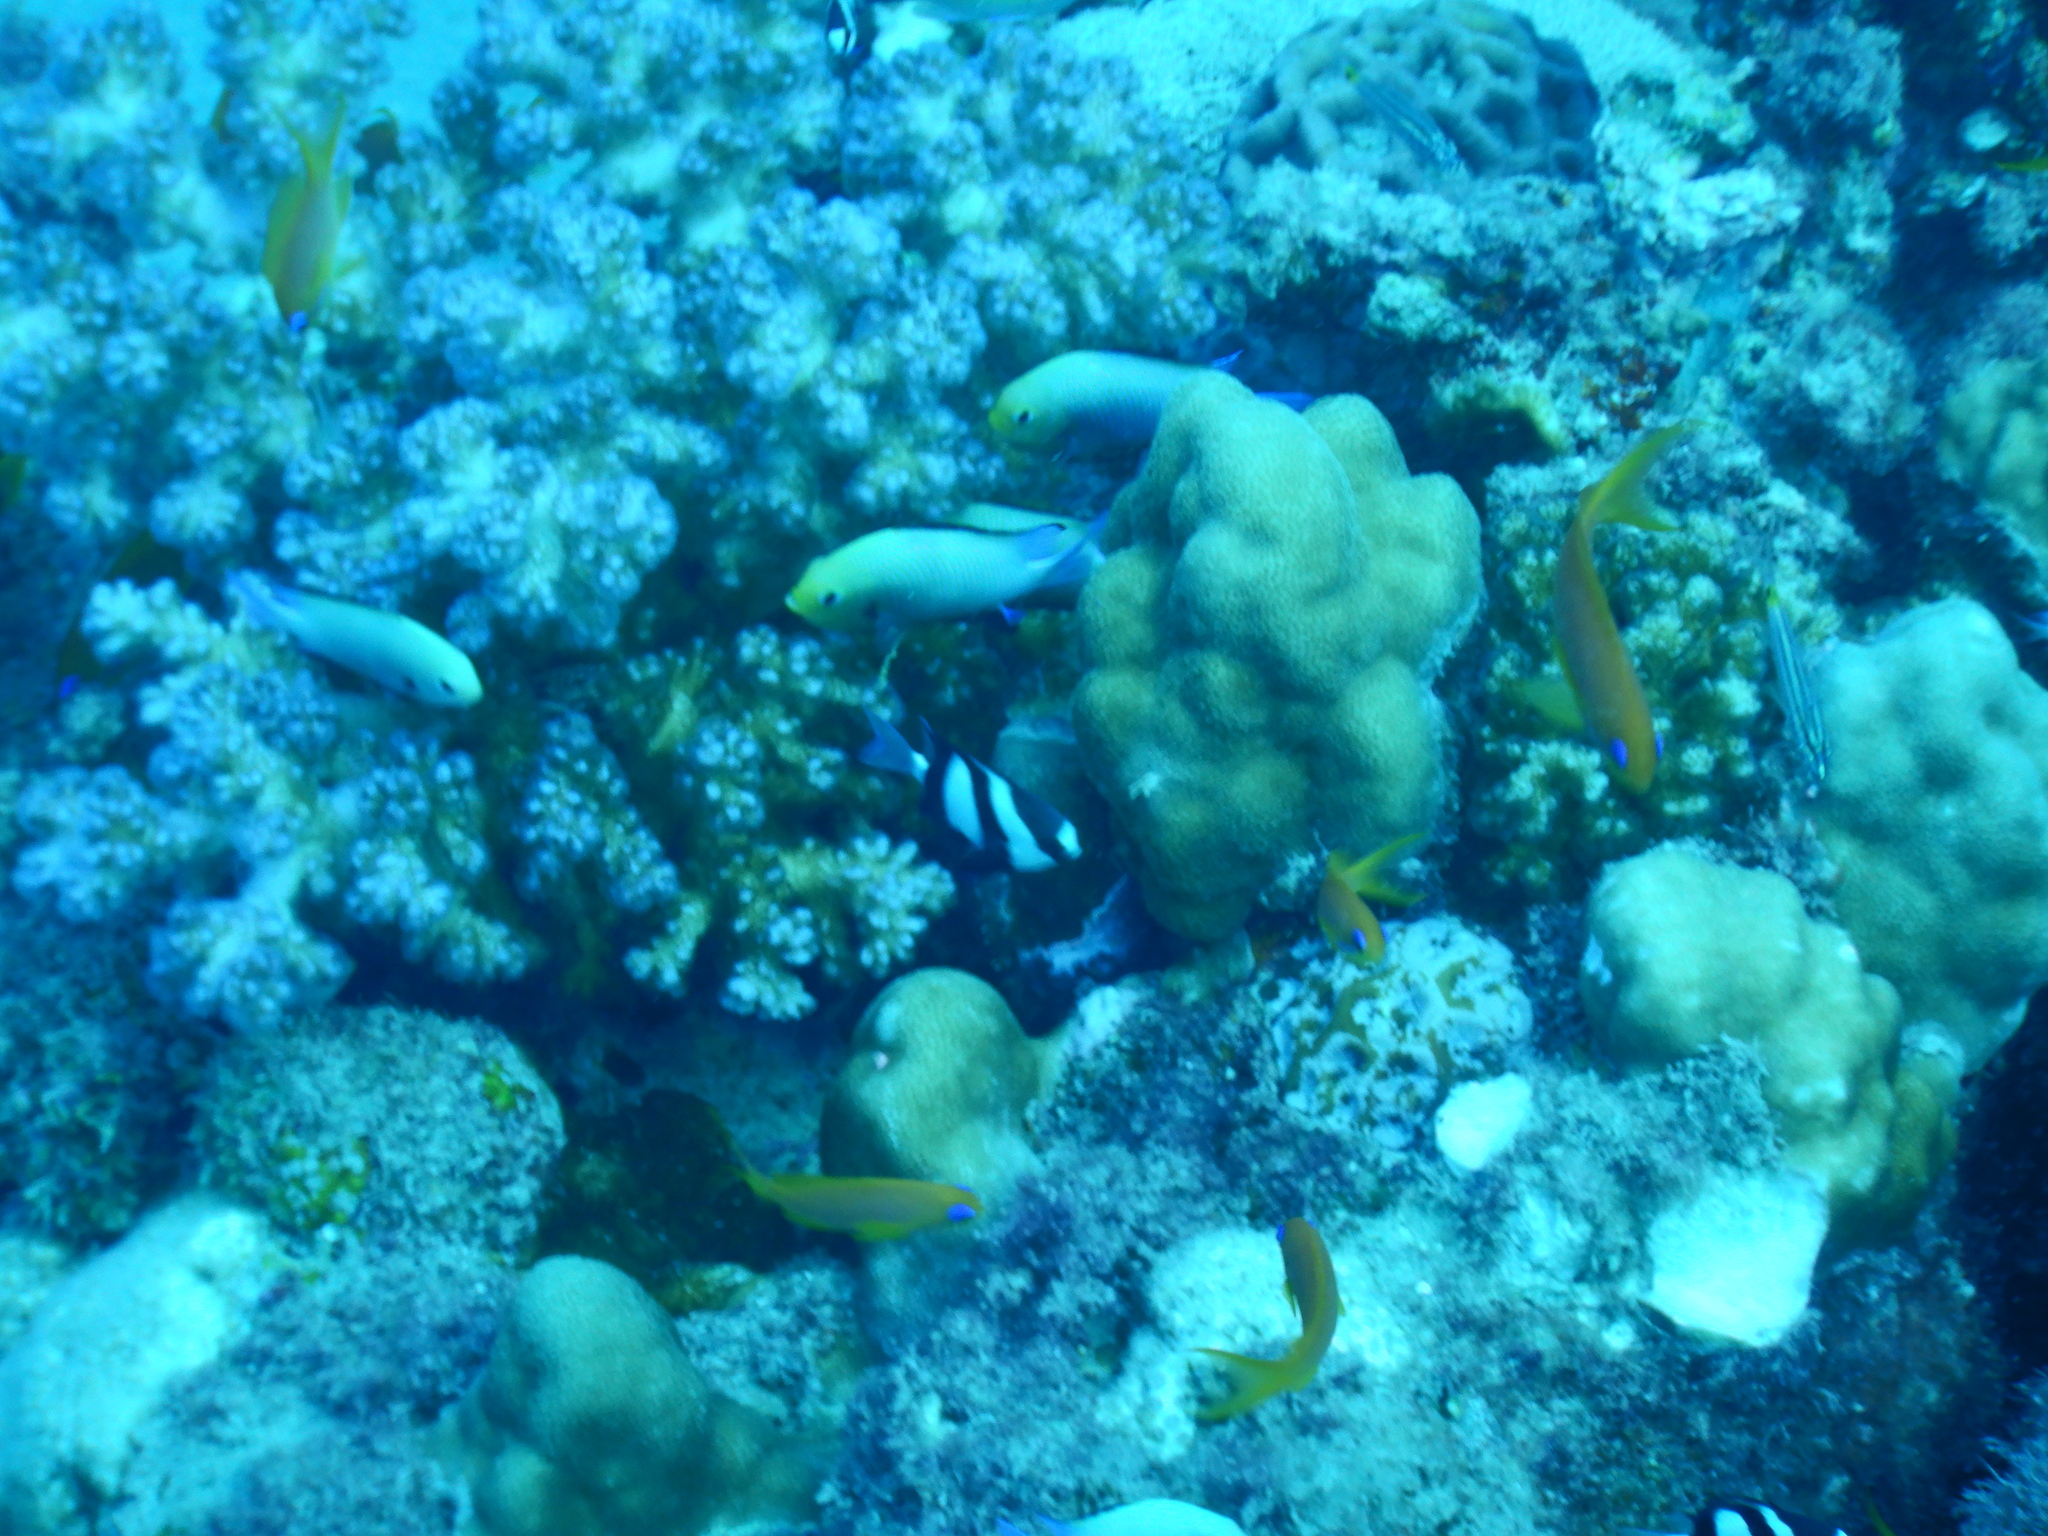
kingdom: Animalia
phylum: Chordata
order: Perciformes
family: Pomacentridae
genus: Dascyllus
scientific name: Dascyllus abudafur
